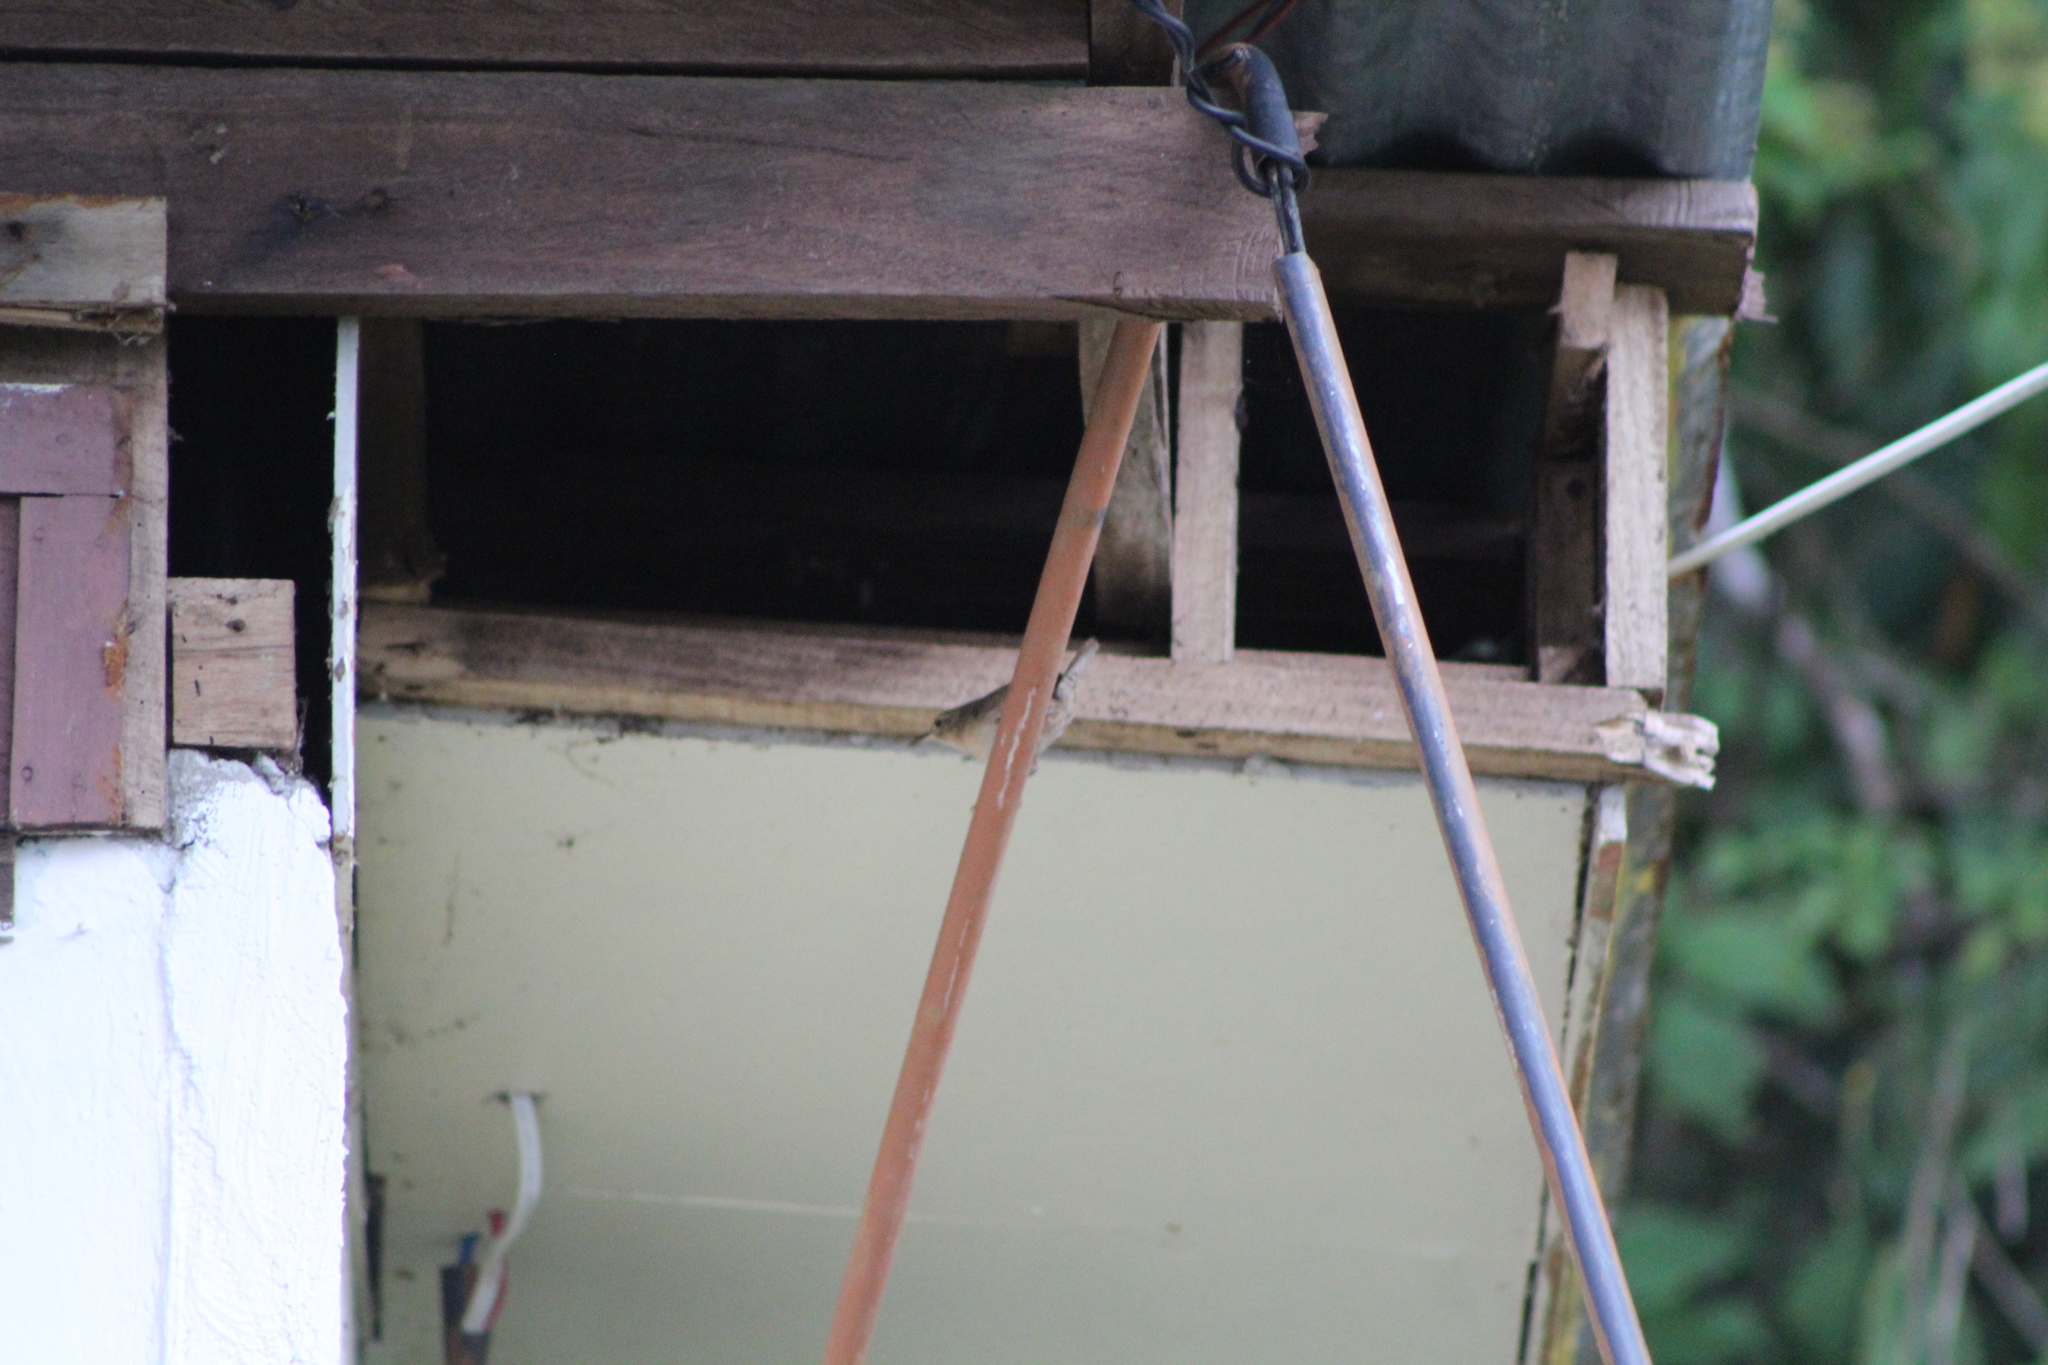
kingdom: Animalia
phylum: Chordata
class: Aves
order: Passeriformes
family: Troglodytidae
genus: Troglodytes
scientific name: Troglodytes aedon
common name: House wren
